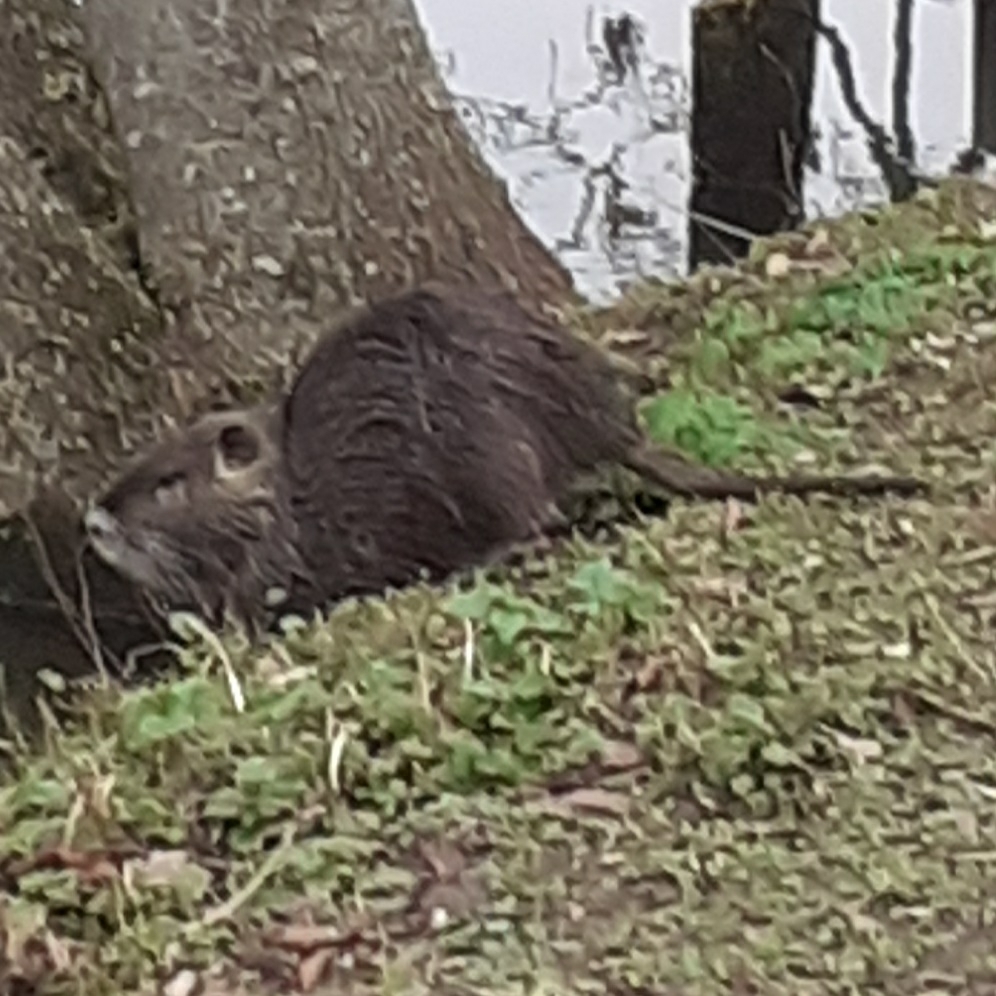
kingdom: Animalia
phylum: Chordata
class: Mammalia
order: Rodentia
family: Myocastoridae
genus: Myocastor
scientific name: Myocastor coypus
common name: Coypu
